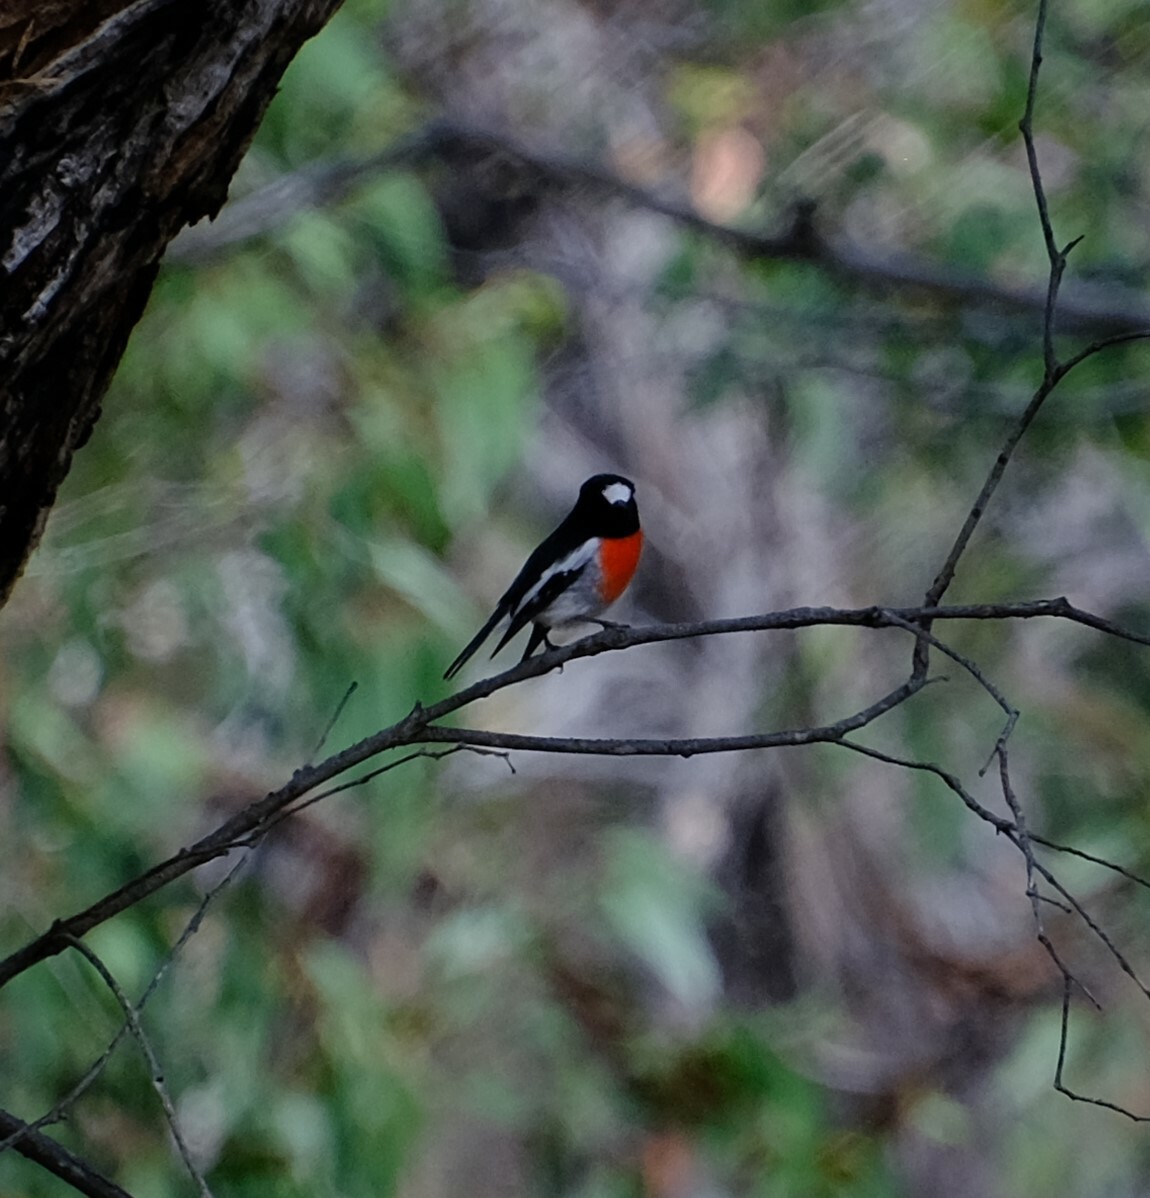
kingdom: Animalia
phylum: Chordata
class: Aves
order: Passeriformes
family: Petroicidae
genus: Petroica
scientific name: Petroica boodang
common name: Scarlet robin
